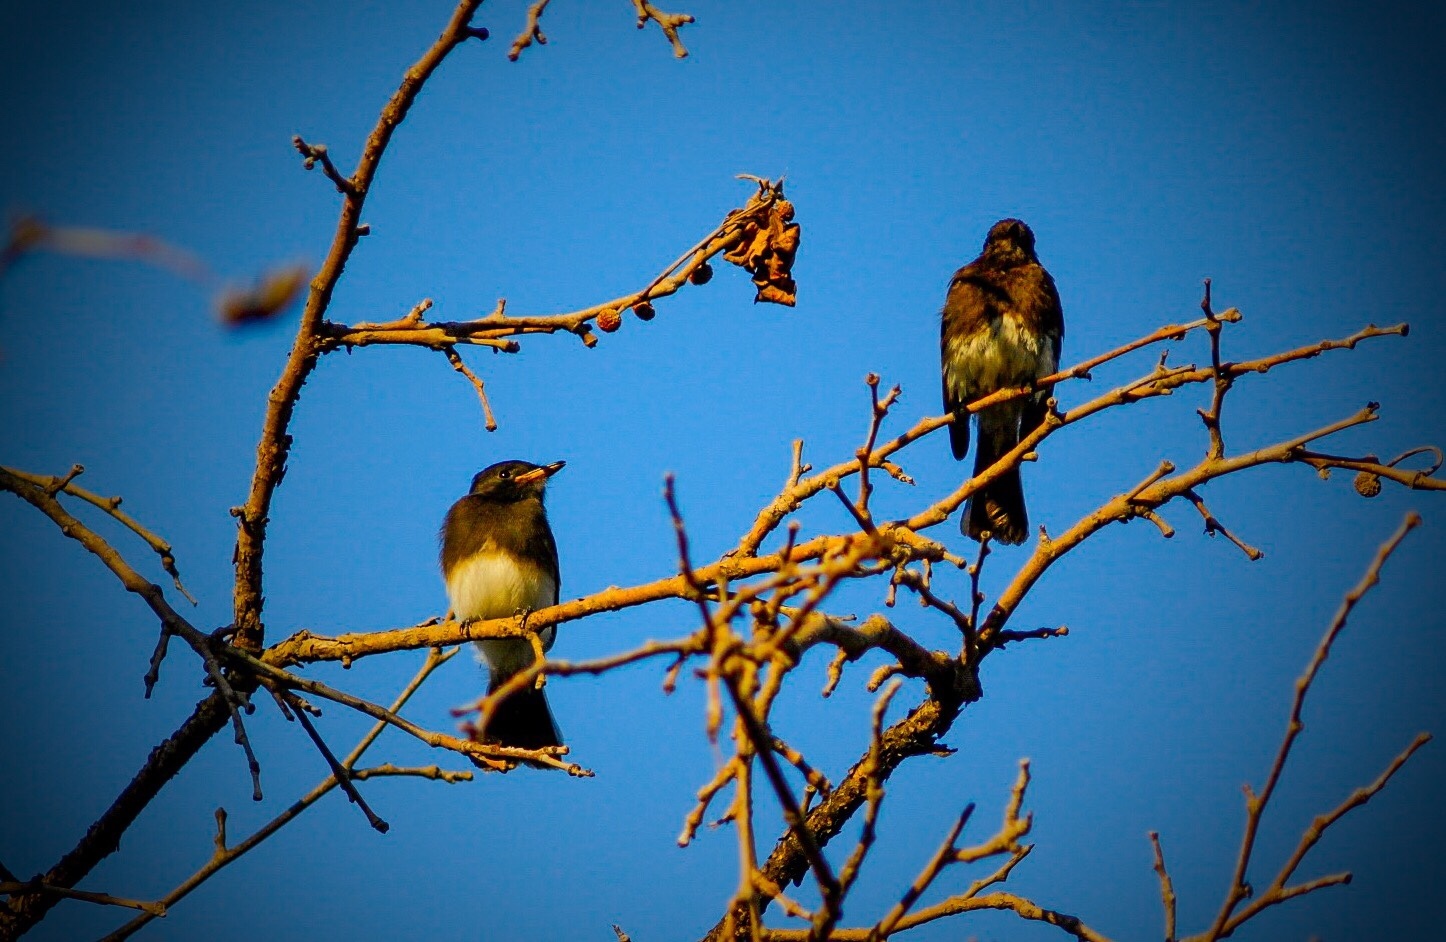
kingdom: Animalia
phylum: Chordata
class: Aves
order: Passeriformes
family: Tyrannidae
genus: Sayornis
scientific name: Sayornis nigricans
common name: Black phoebe
